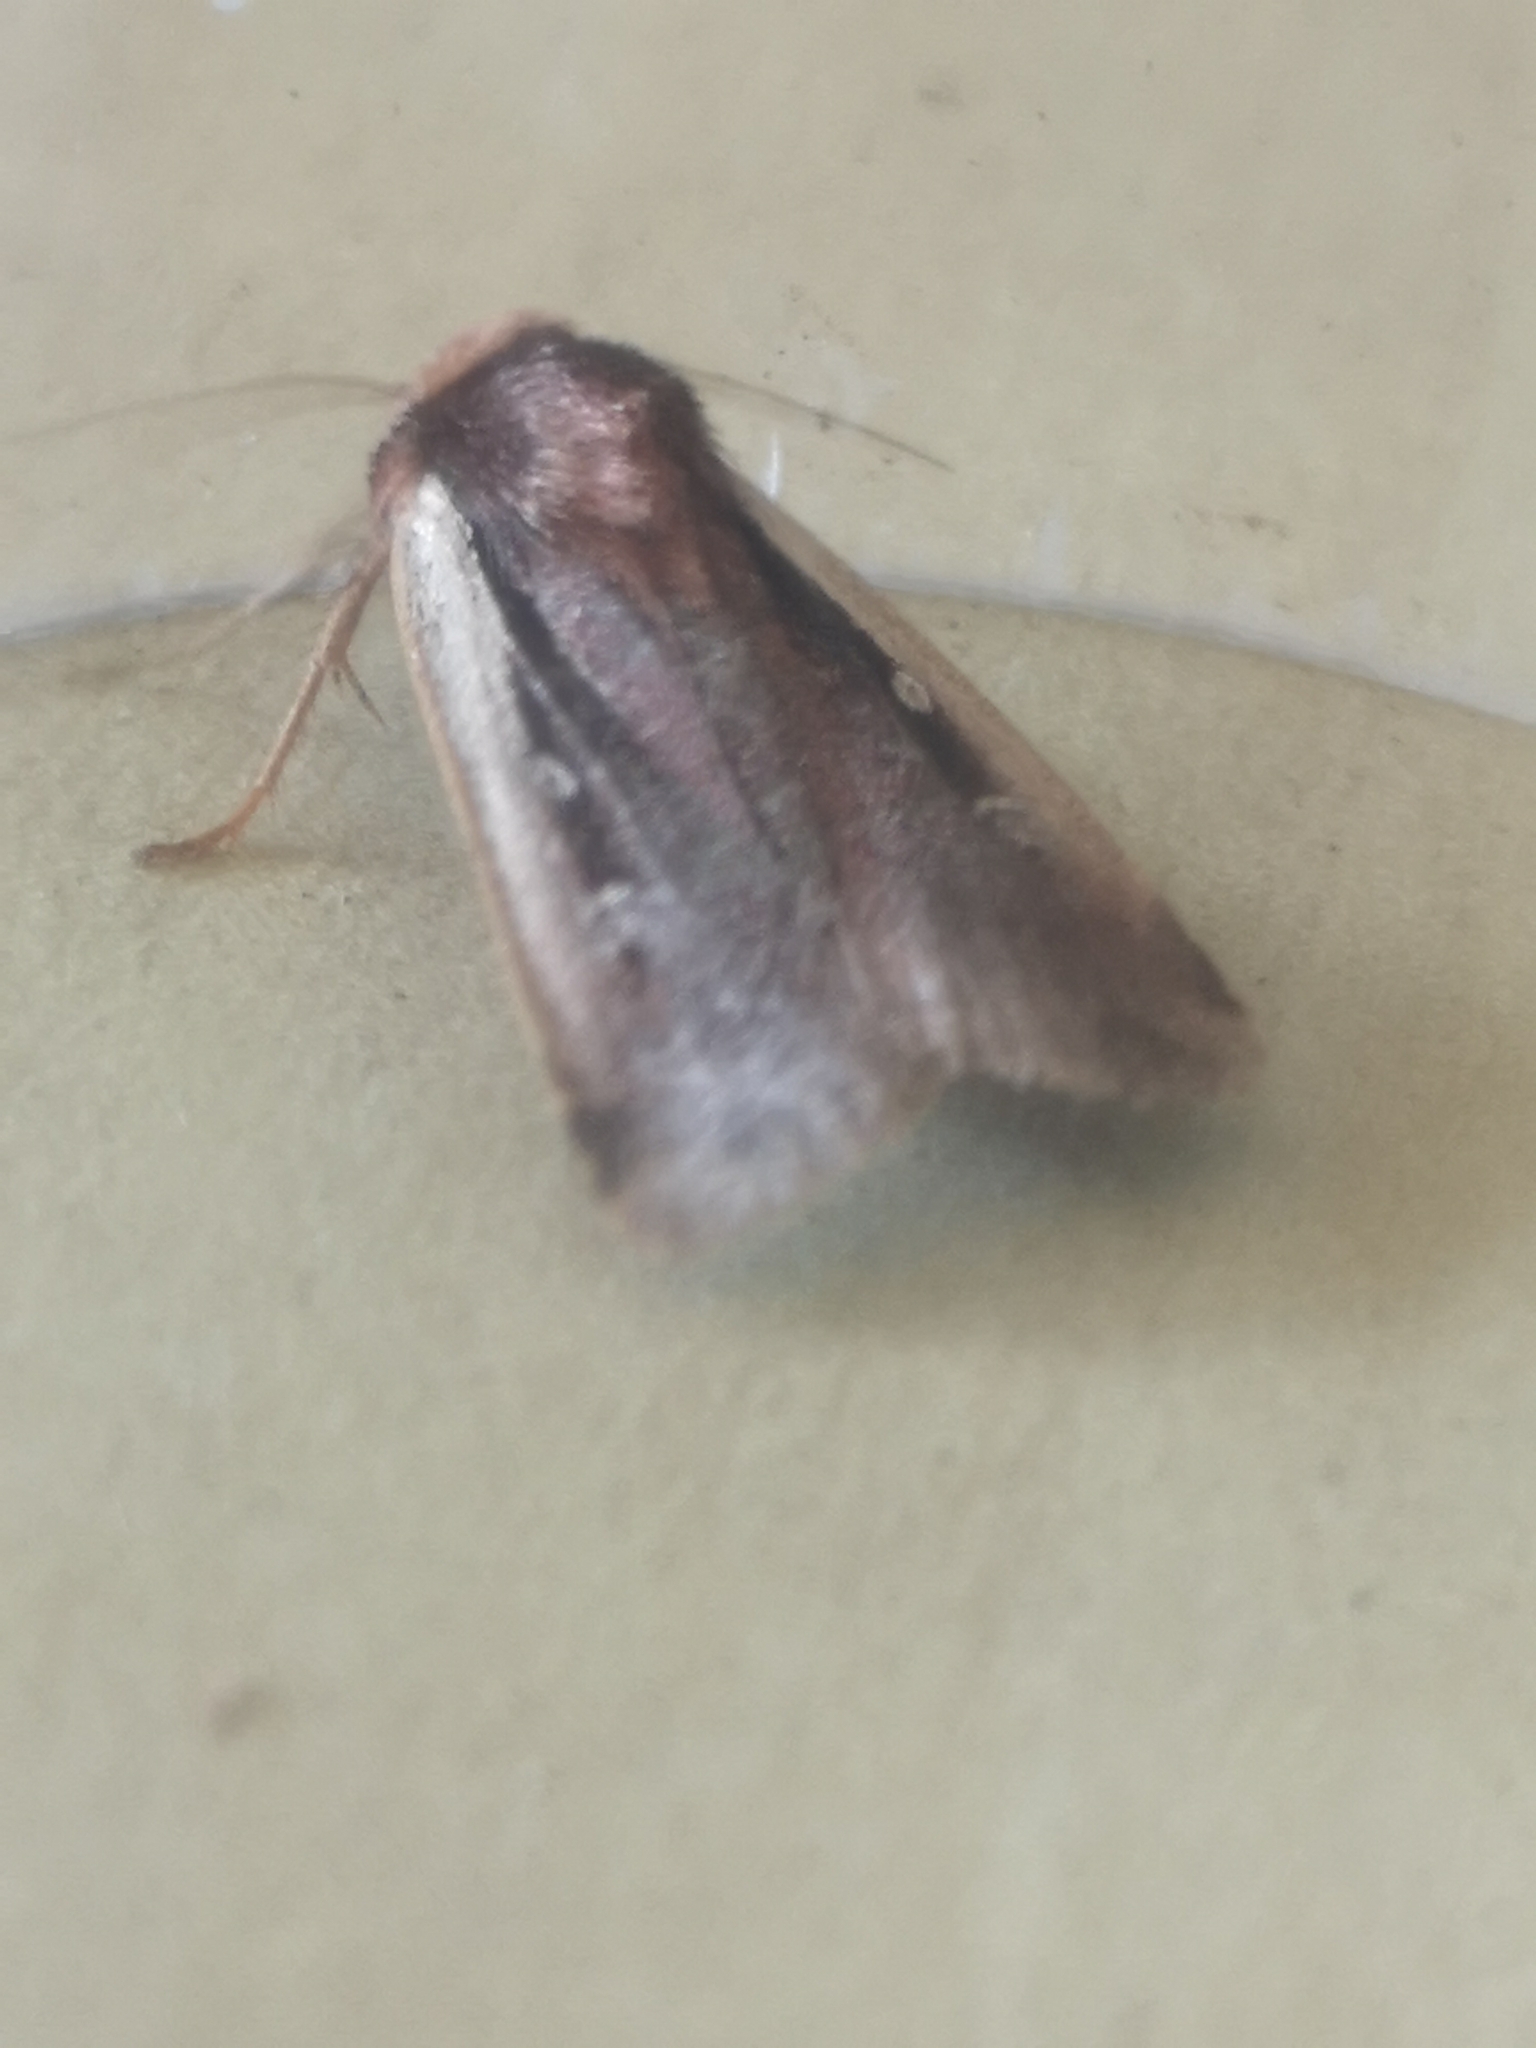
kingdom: Animalia
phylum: Arthropoda
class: Insecta
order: Lepidoptera
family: Noctuidae
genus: Ochropleura
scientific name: Ochropleura plecta
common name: Flame shoulder
